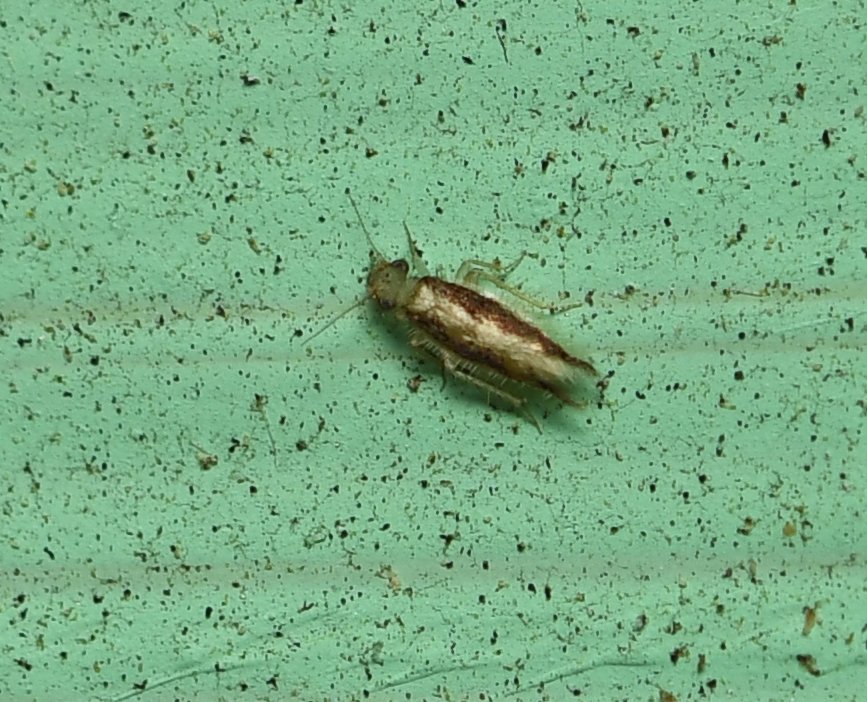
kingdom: Animalia
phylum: Arthropoda
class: Insecta
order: Psocodea
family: Lepidopsocidae
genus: Echmepteryx
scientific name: Echmepteryx madagascariensis
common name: Bark lice
